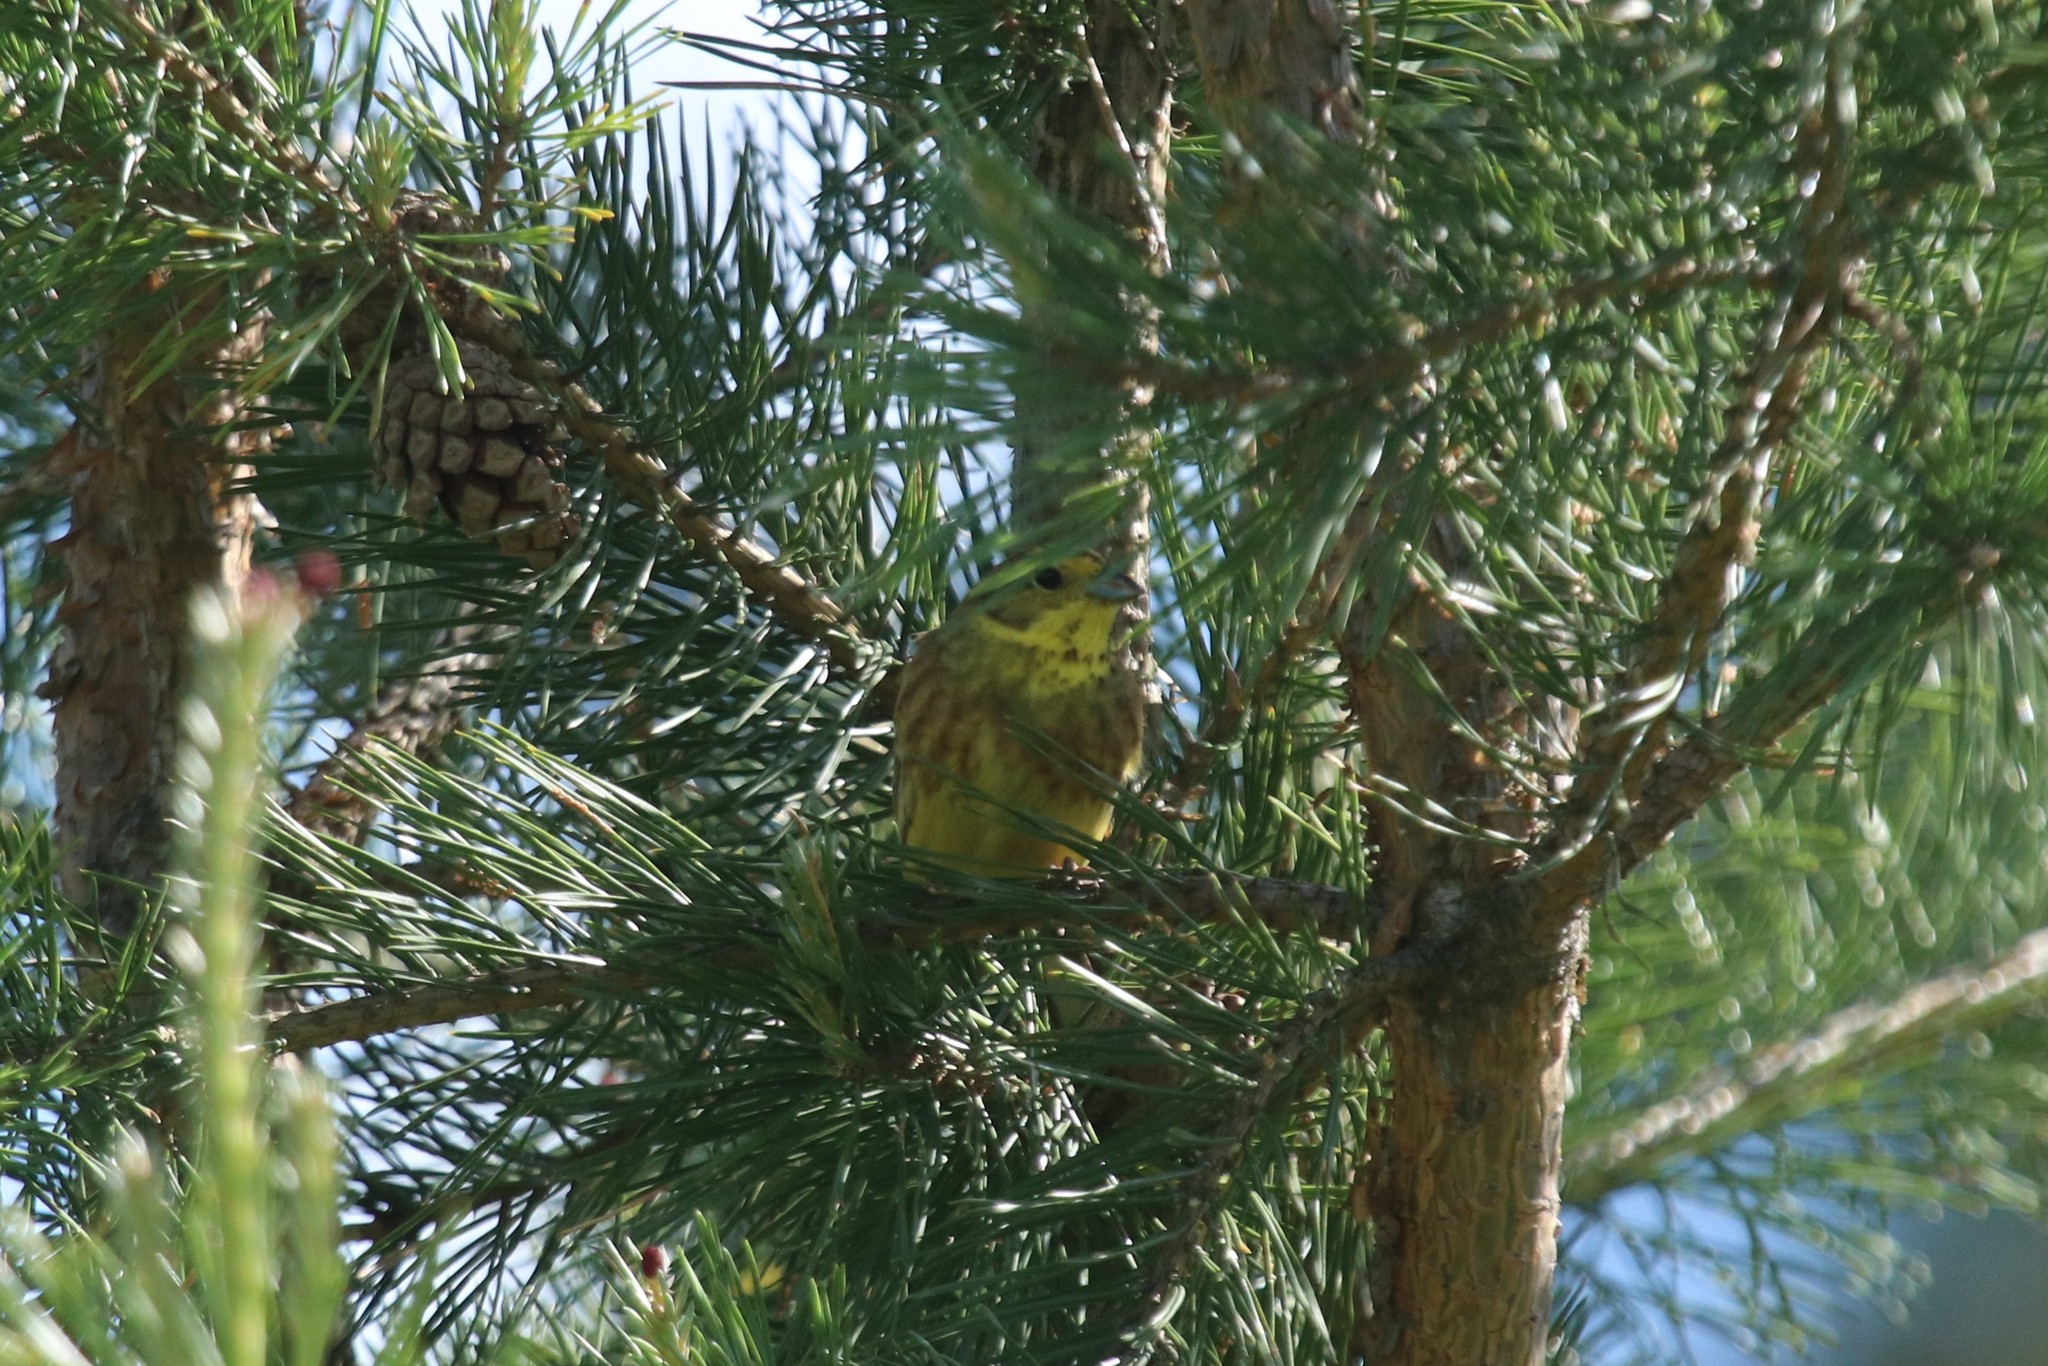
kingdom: Animalia
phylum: Chordata
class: Aves
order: Passeriformes
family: Emberizidae
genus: Emberiza
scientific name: Emberiza citrinella
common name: Yellowhammer
